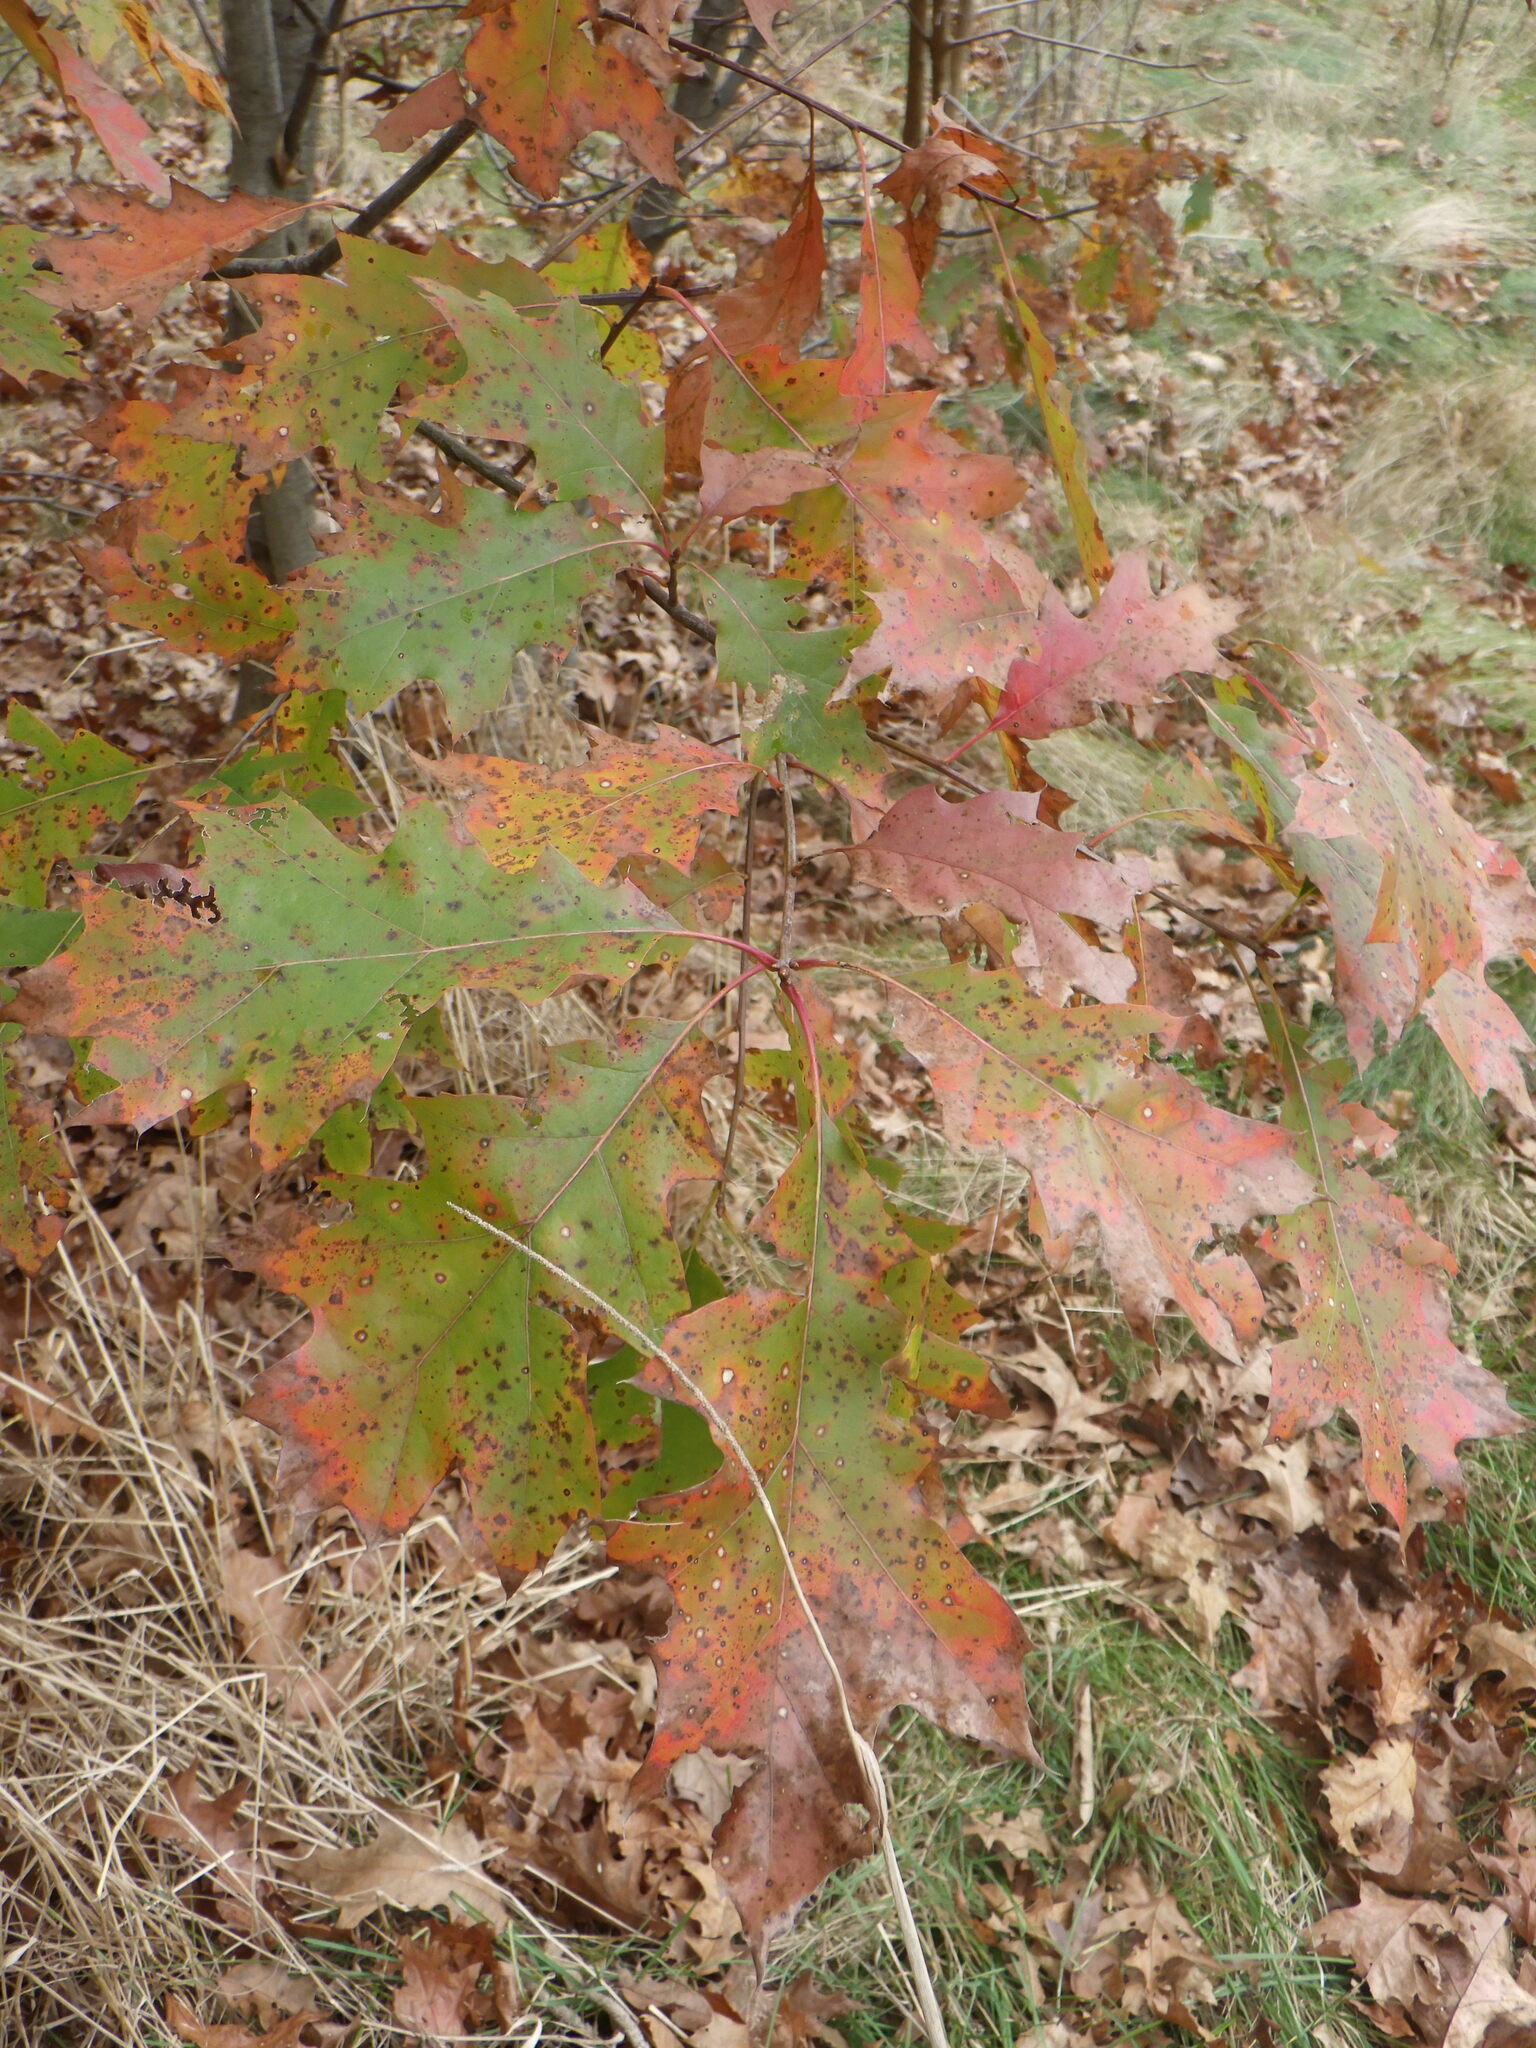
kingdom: Plantae
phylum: Tracheophyta
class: Magnoliopsida
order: Fagales
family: Fagaceae
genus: Quercus
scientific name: Quercus rubra
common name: Red oak
